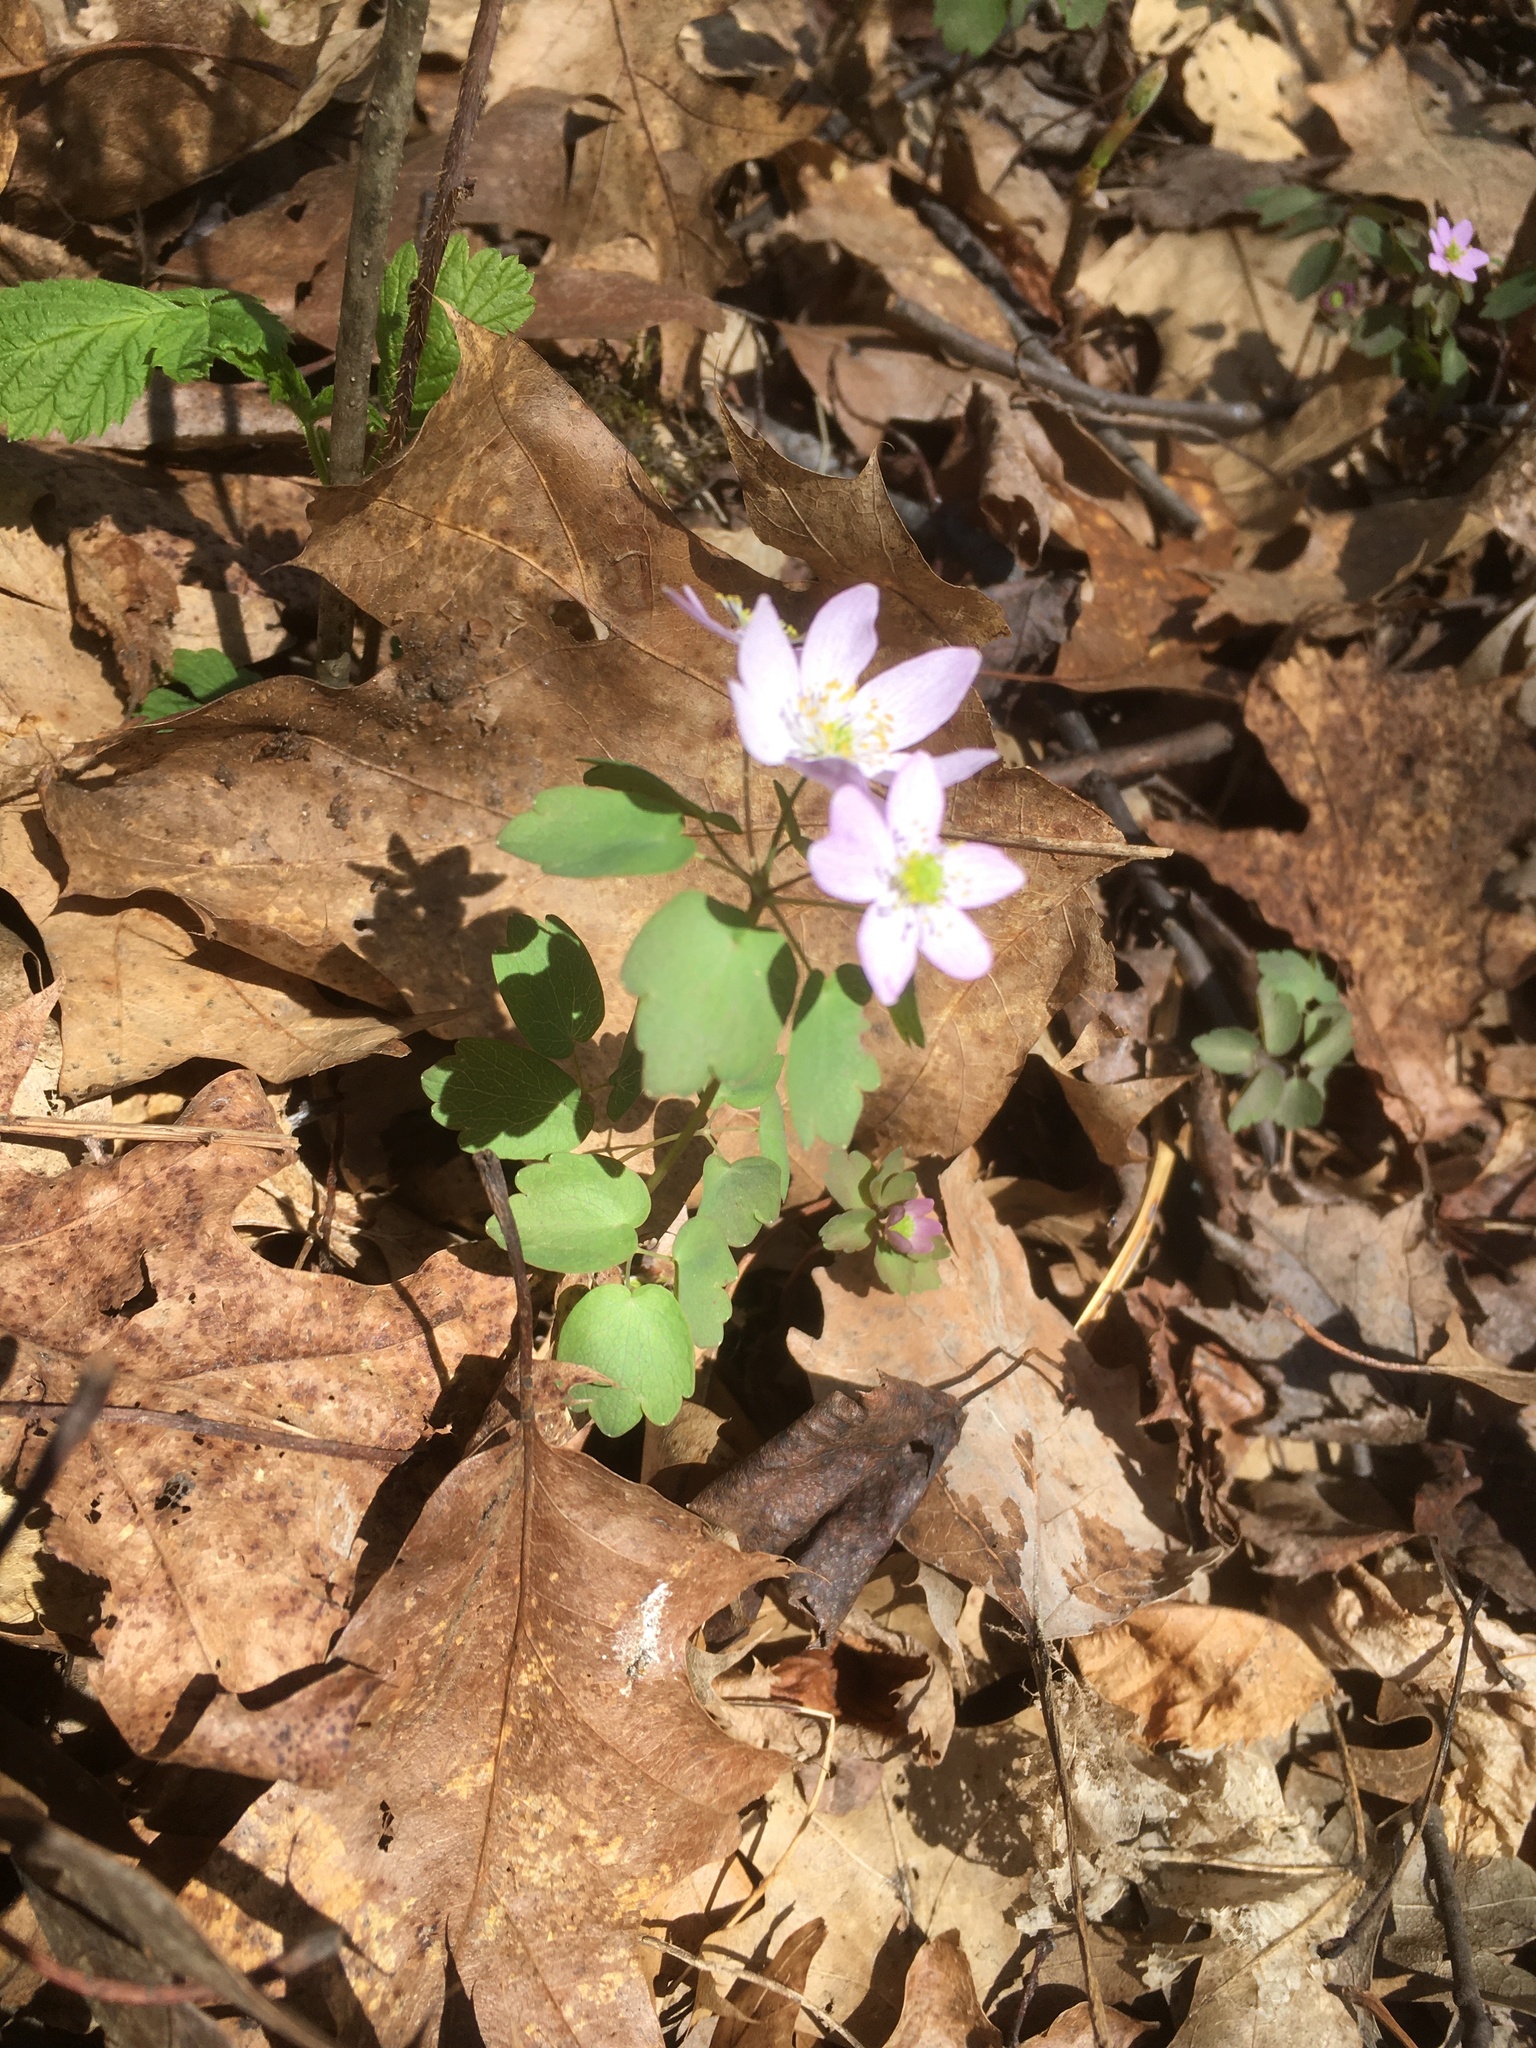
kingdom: Plantae
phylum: Tracheophyta
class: Magnoliopsida
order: Ranunculales
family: Ranunculaceae
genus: Thalictrum
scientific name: Thalictrum thalictroides
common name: Rue-anemone
